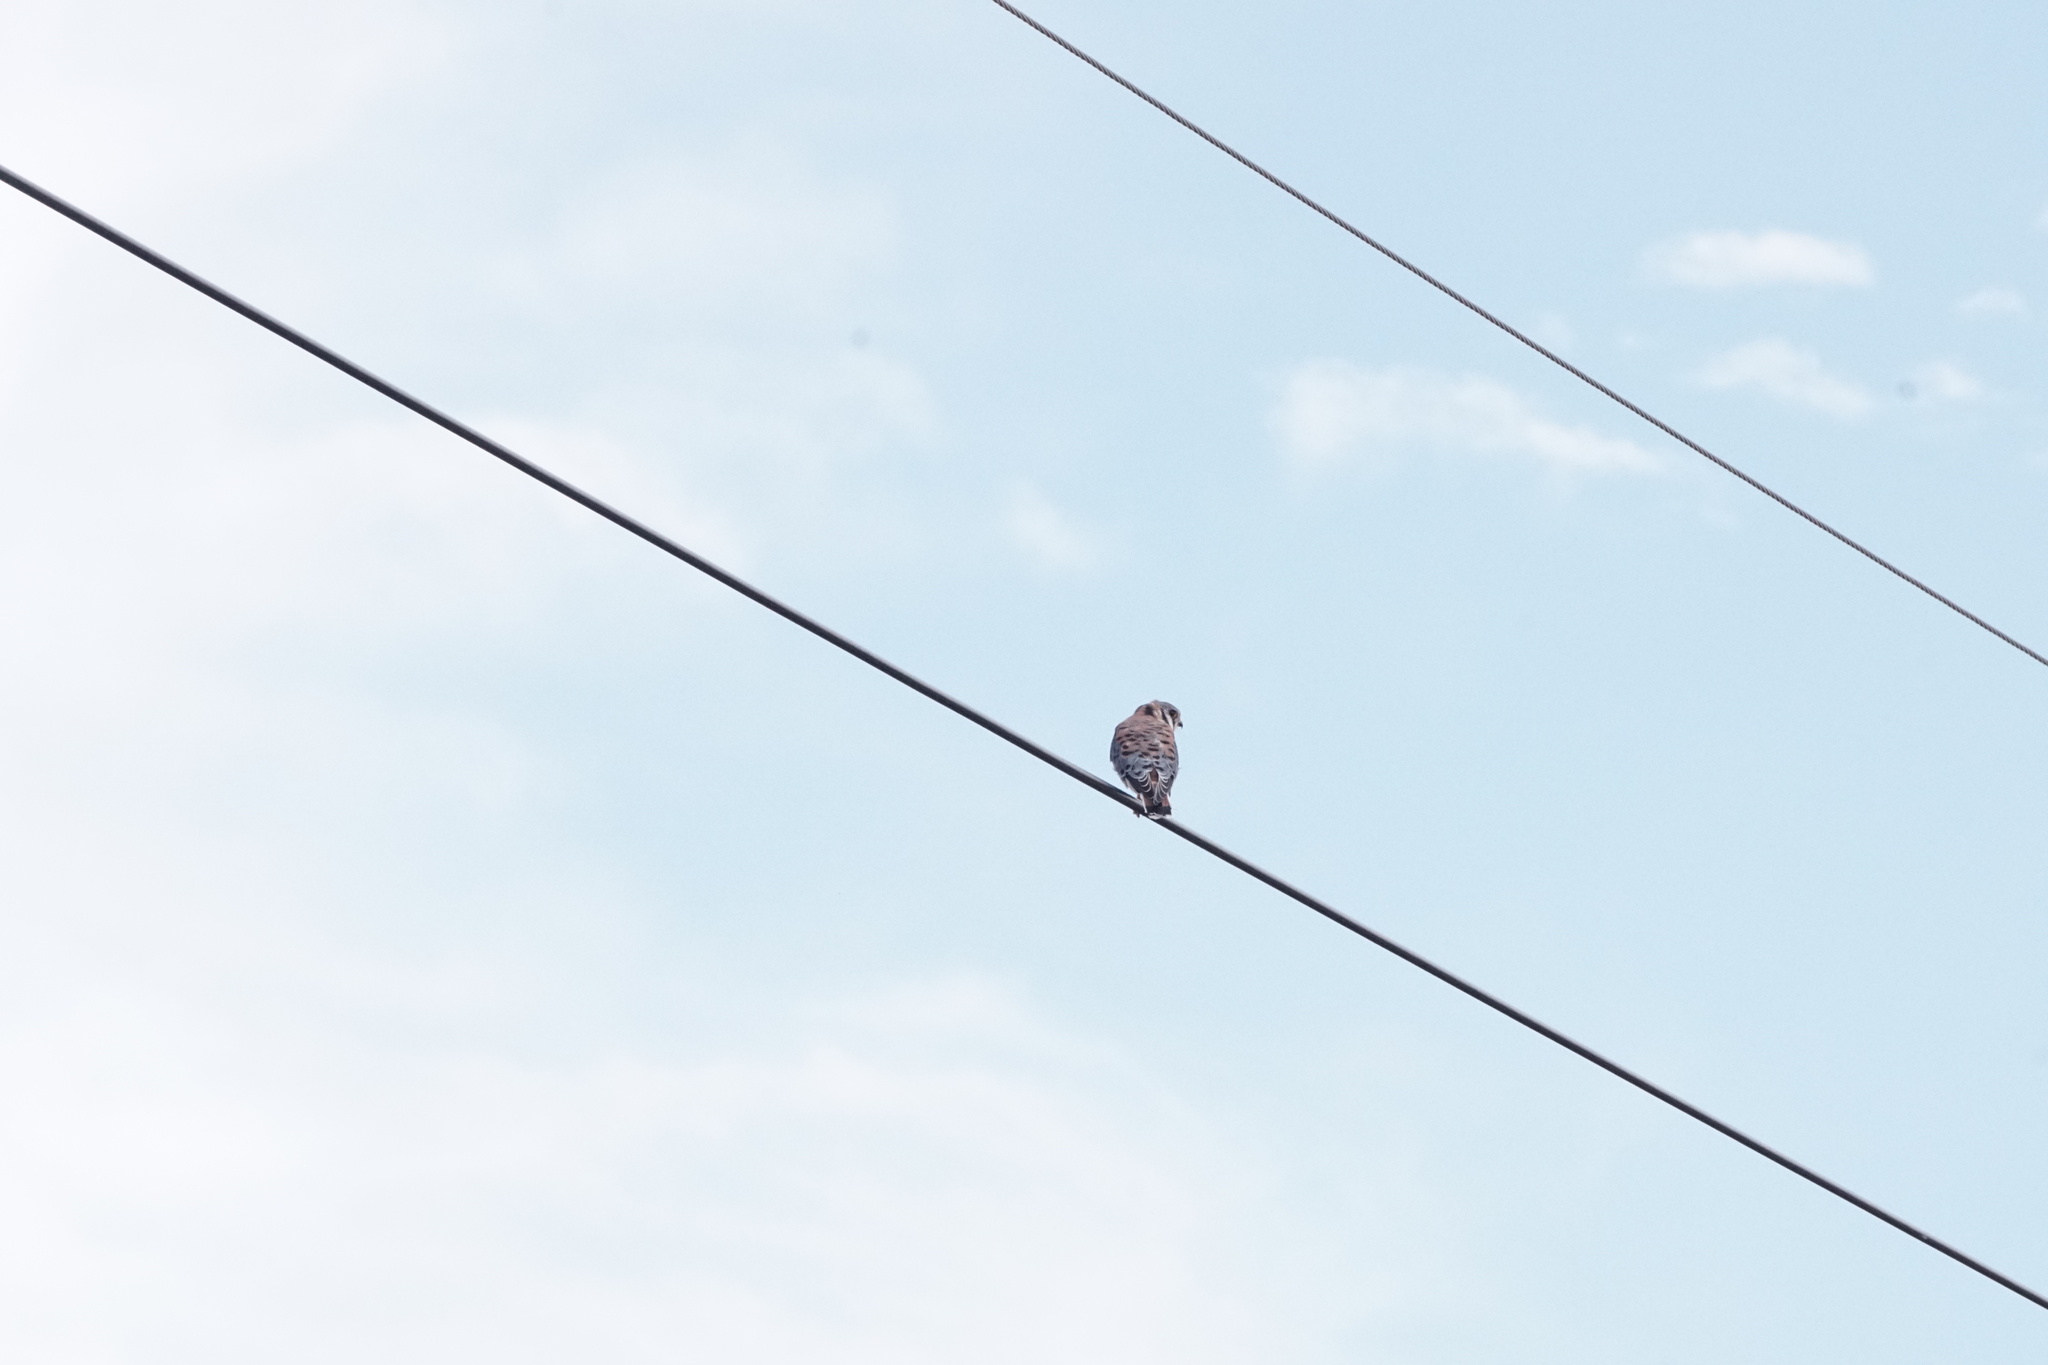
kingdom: Animalia
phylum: Chordata
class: Aves
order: Falconiformes
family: Falconidae
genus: Falco
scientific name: Falco sparverius
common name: American kestrel
